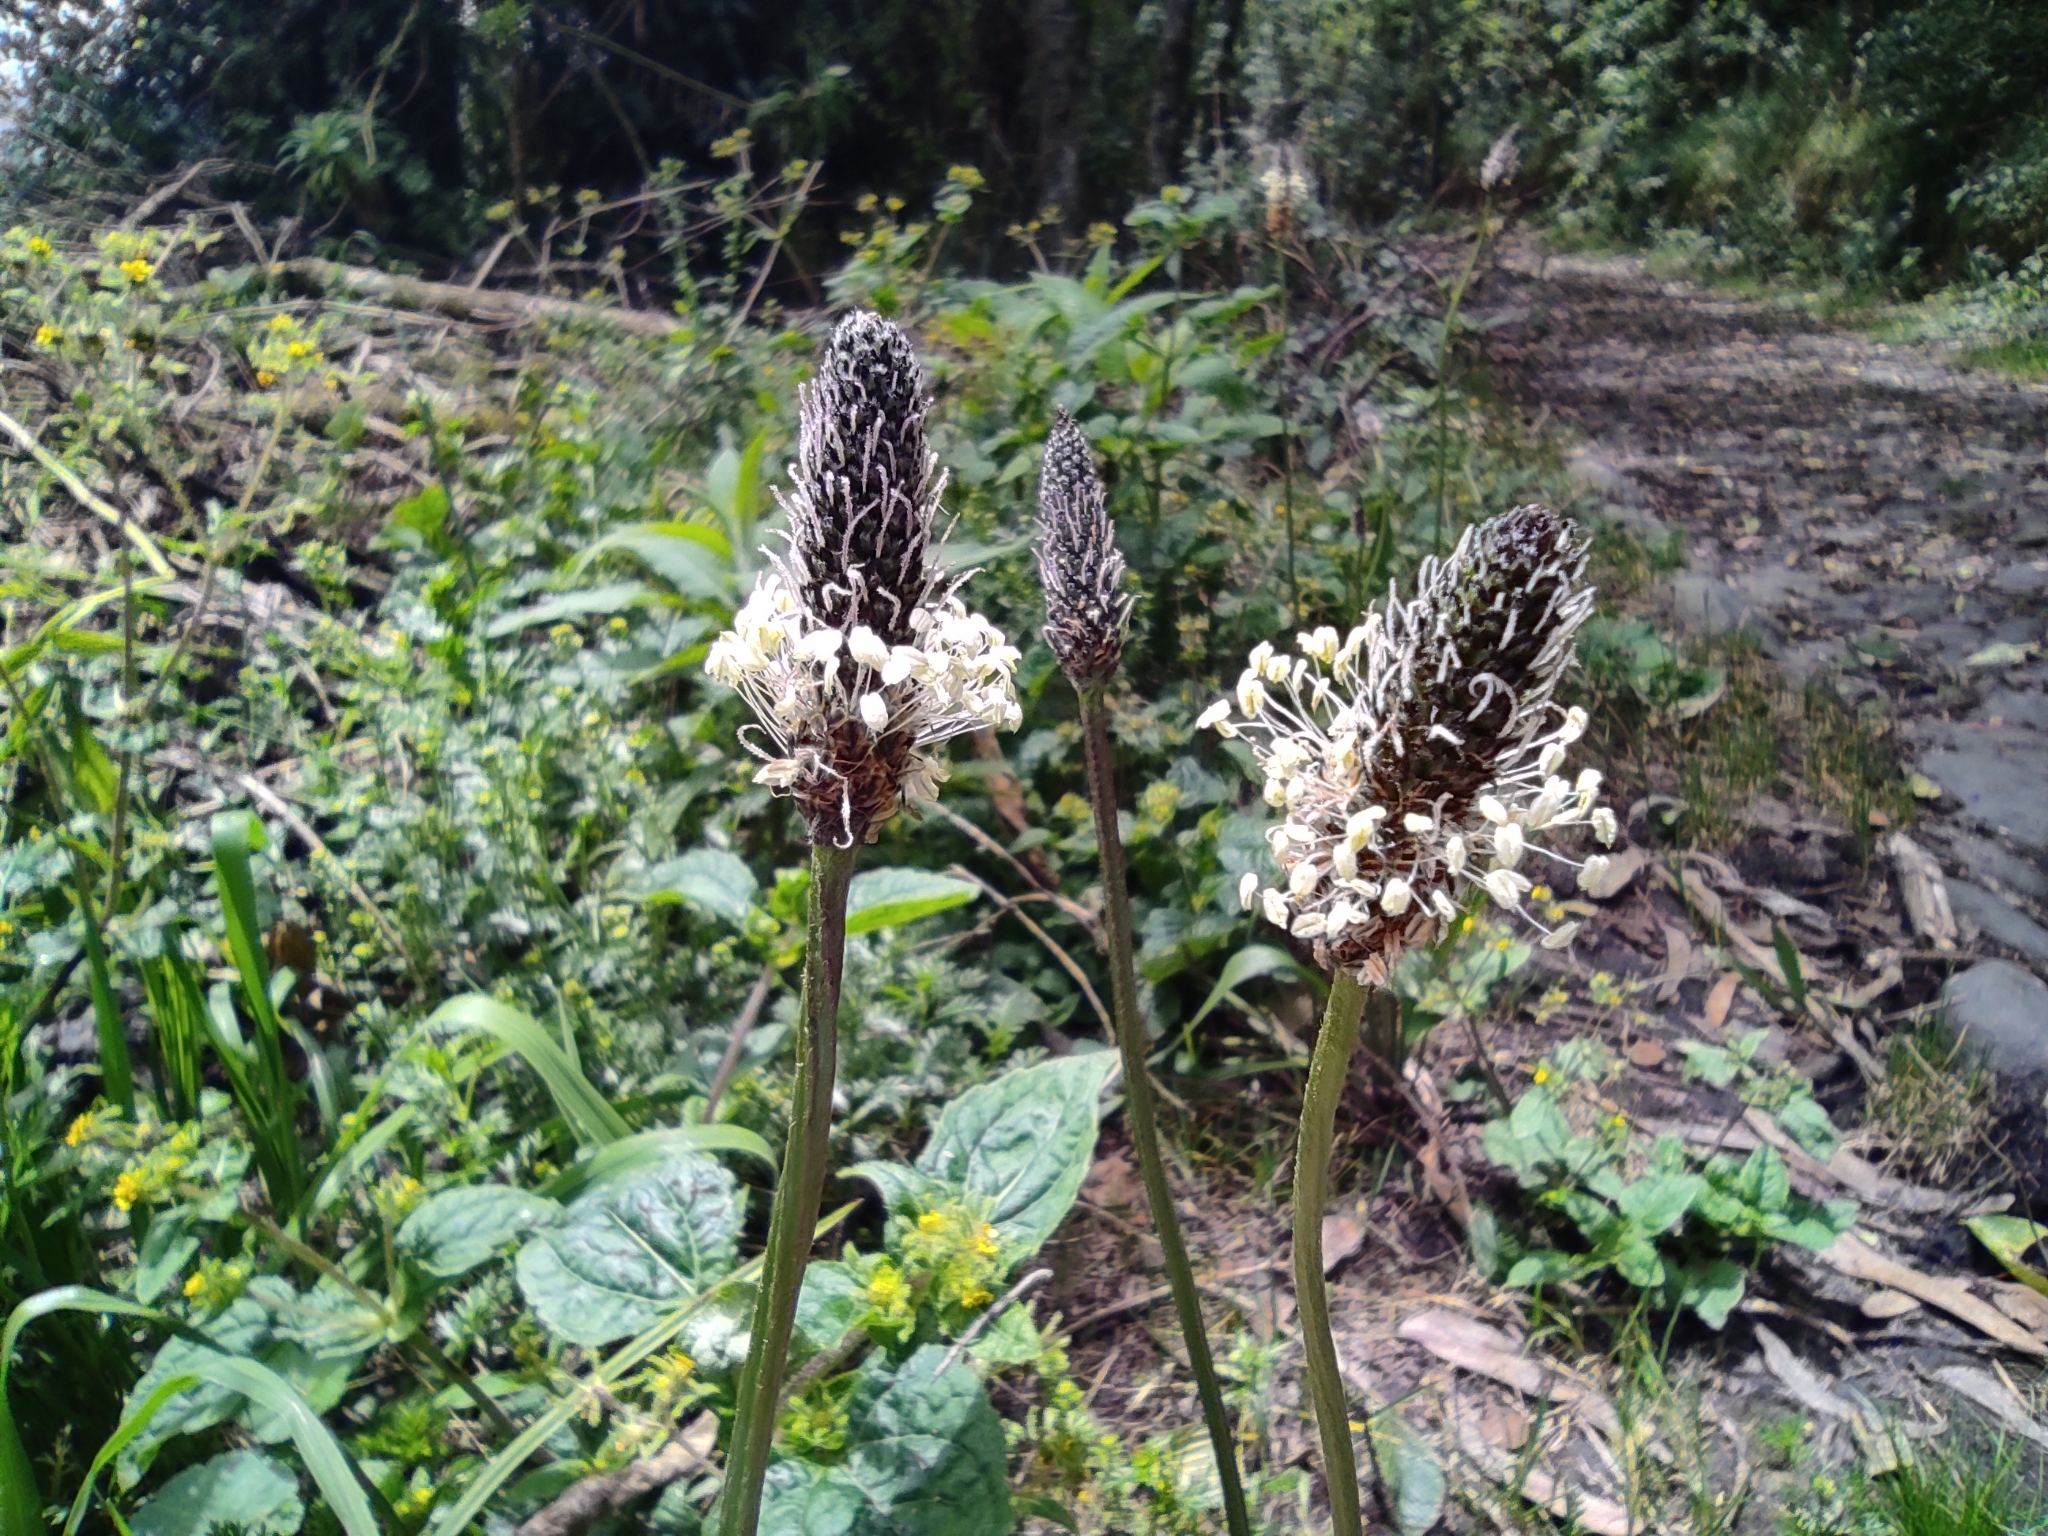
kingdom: Plantae
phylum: Tracheophyta
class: Magnoliopsida
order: Lamiales
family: Plantaginaceae
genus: Plantago
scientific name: Plantago lanceolata
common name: Ribwort plantain
